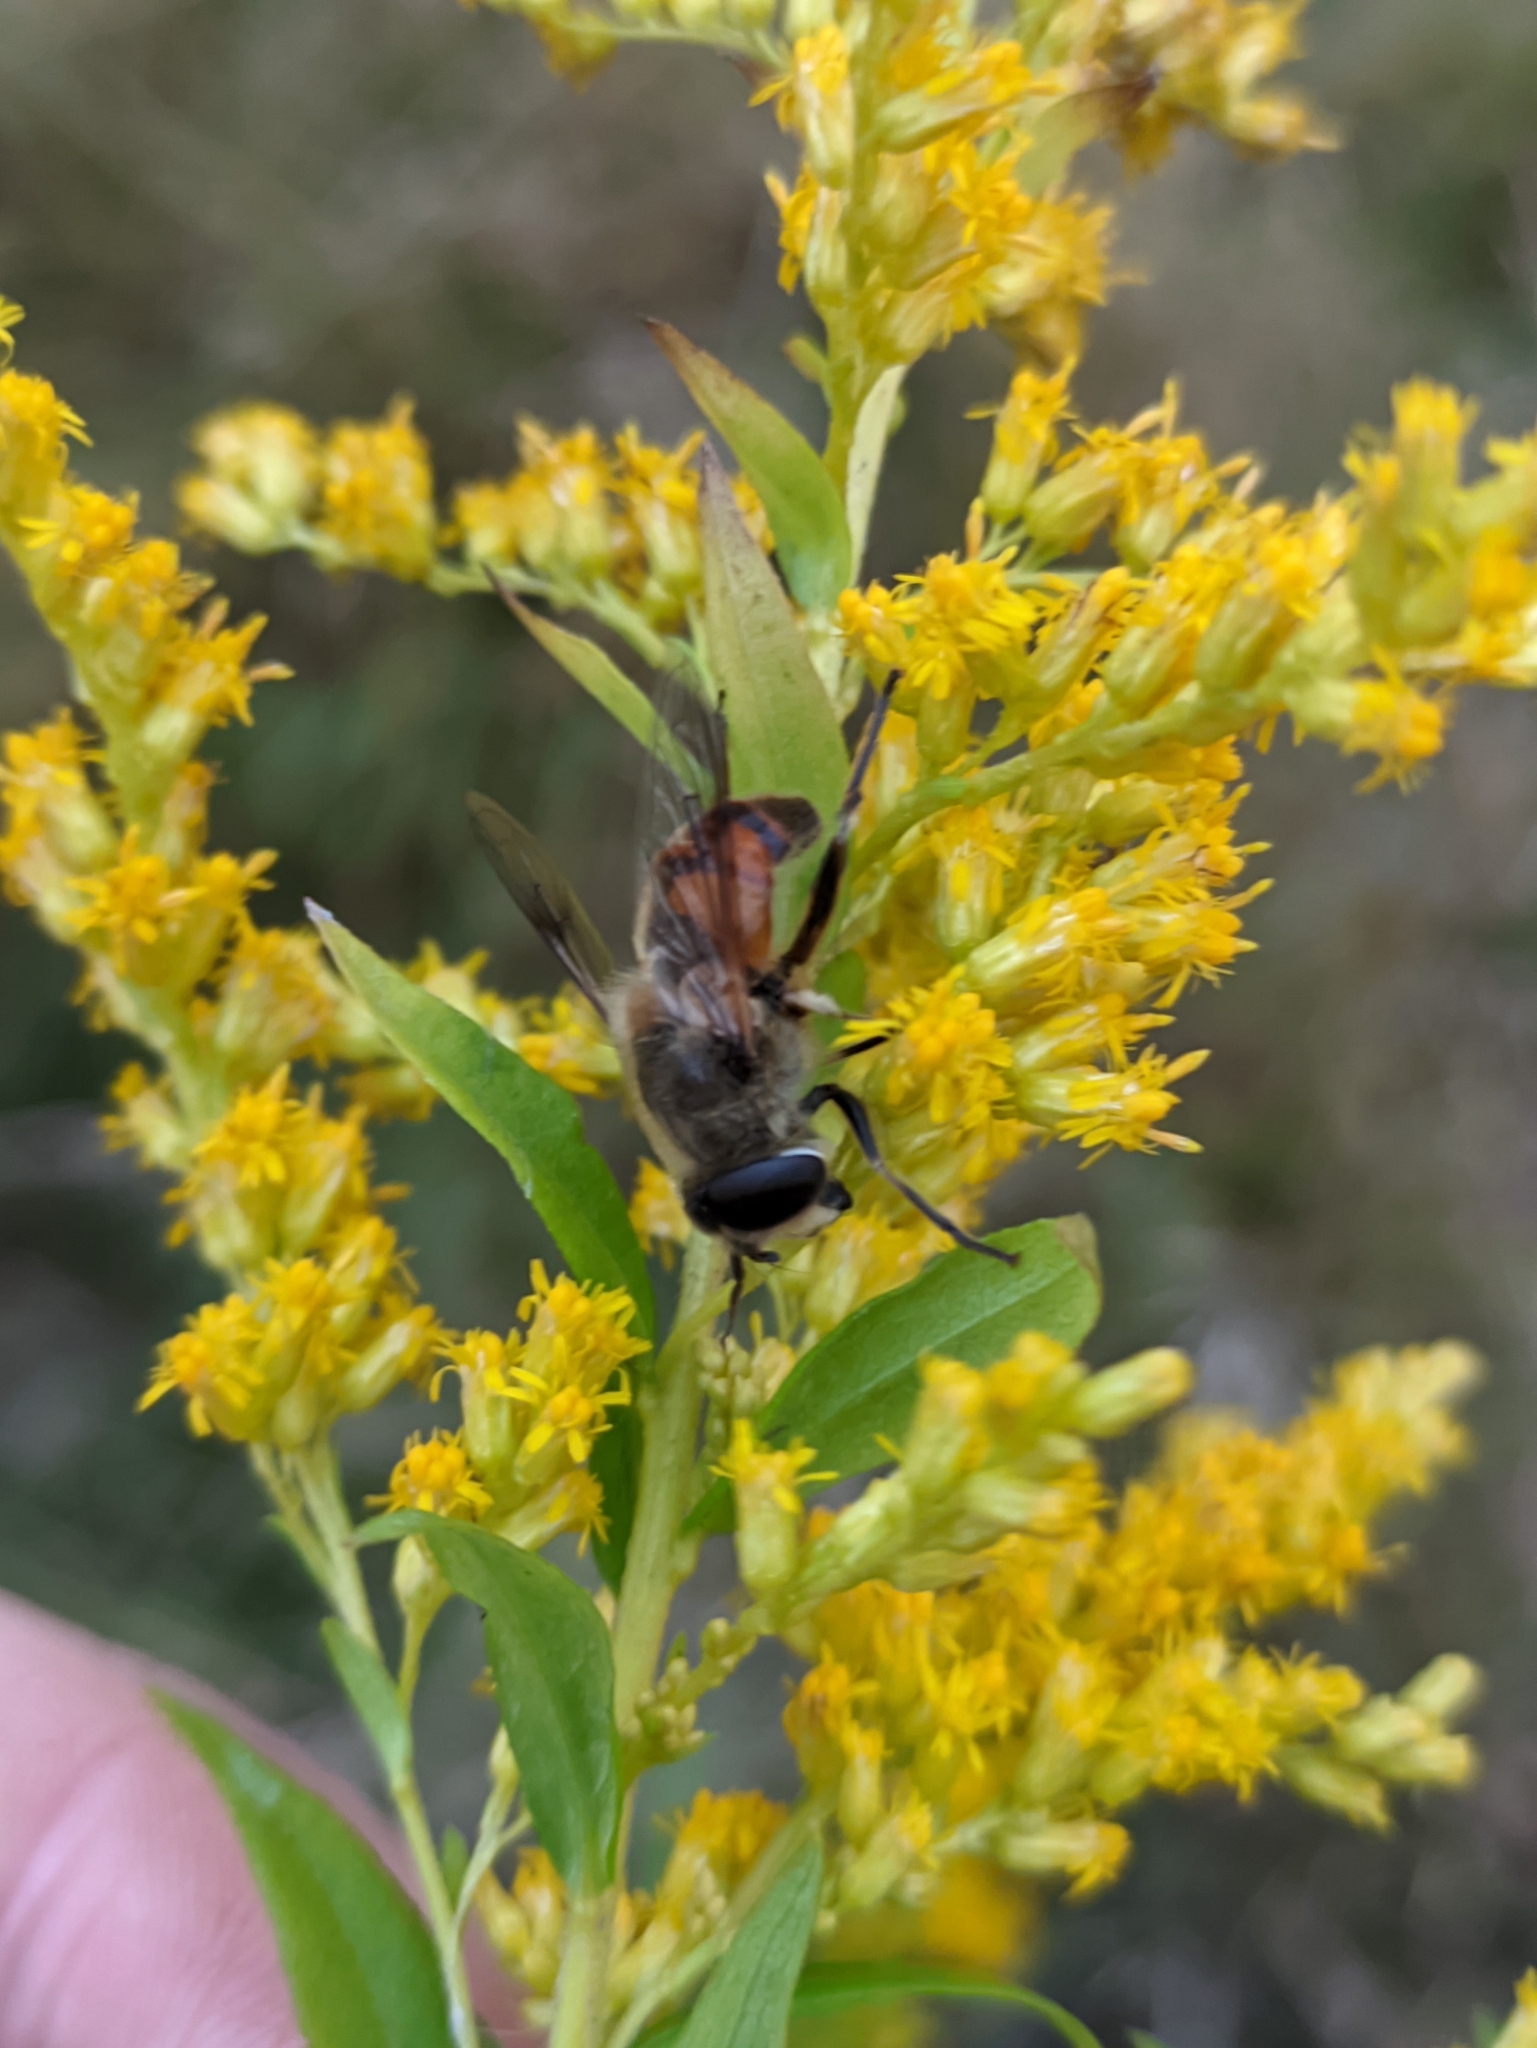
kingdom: Animalia
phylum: Arthropoda
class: Insecta
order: Diptera
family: Syrphidae
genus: Eristalis
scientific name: Eristalis tenax
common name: Drone fly
